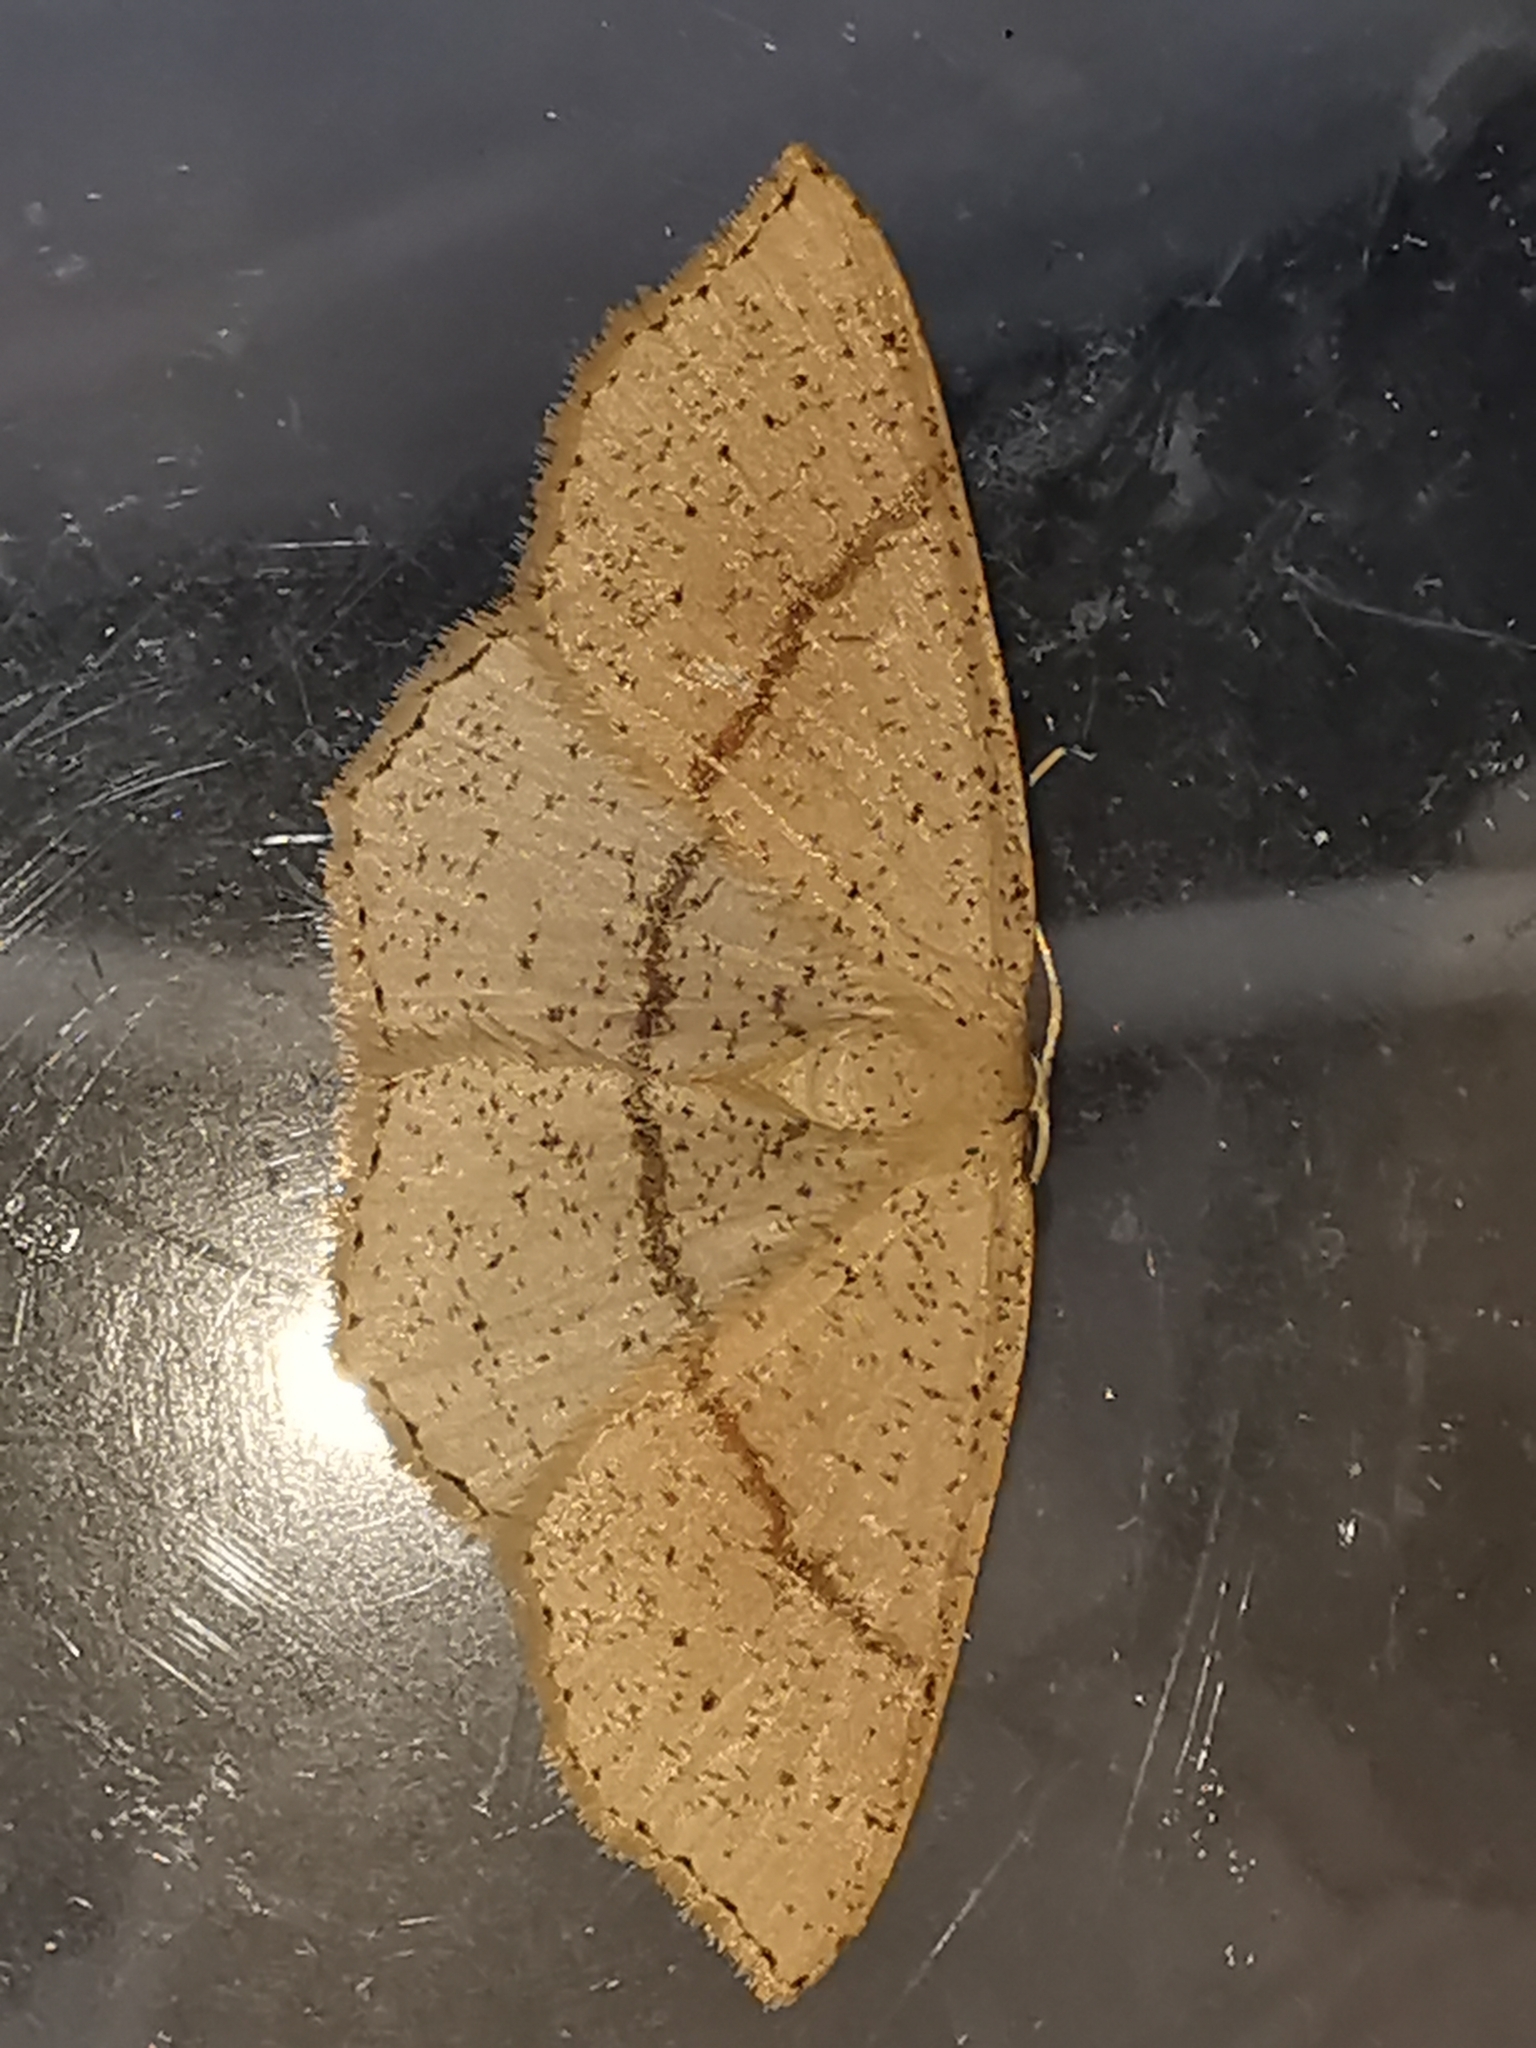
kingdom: Animalia
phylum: Arthropoda
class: Insecta
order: Lepidoptera
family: Geometridae
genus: Cyclophora
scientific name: Cyclophora punctaria
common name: Maiden's blush
